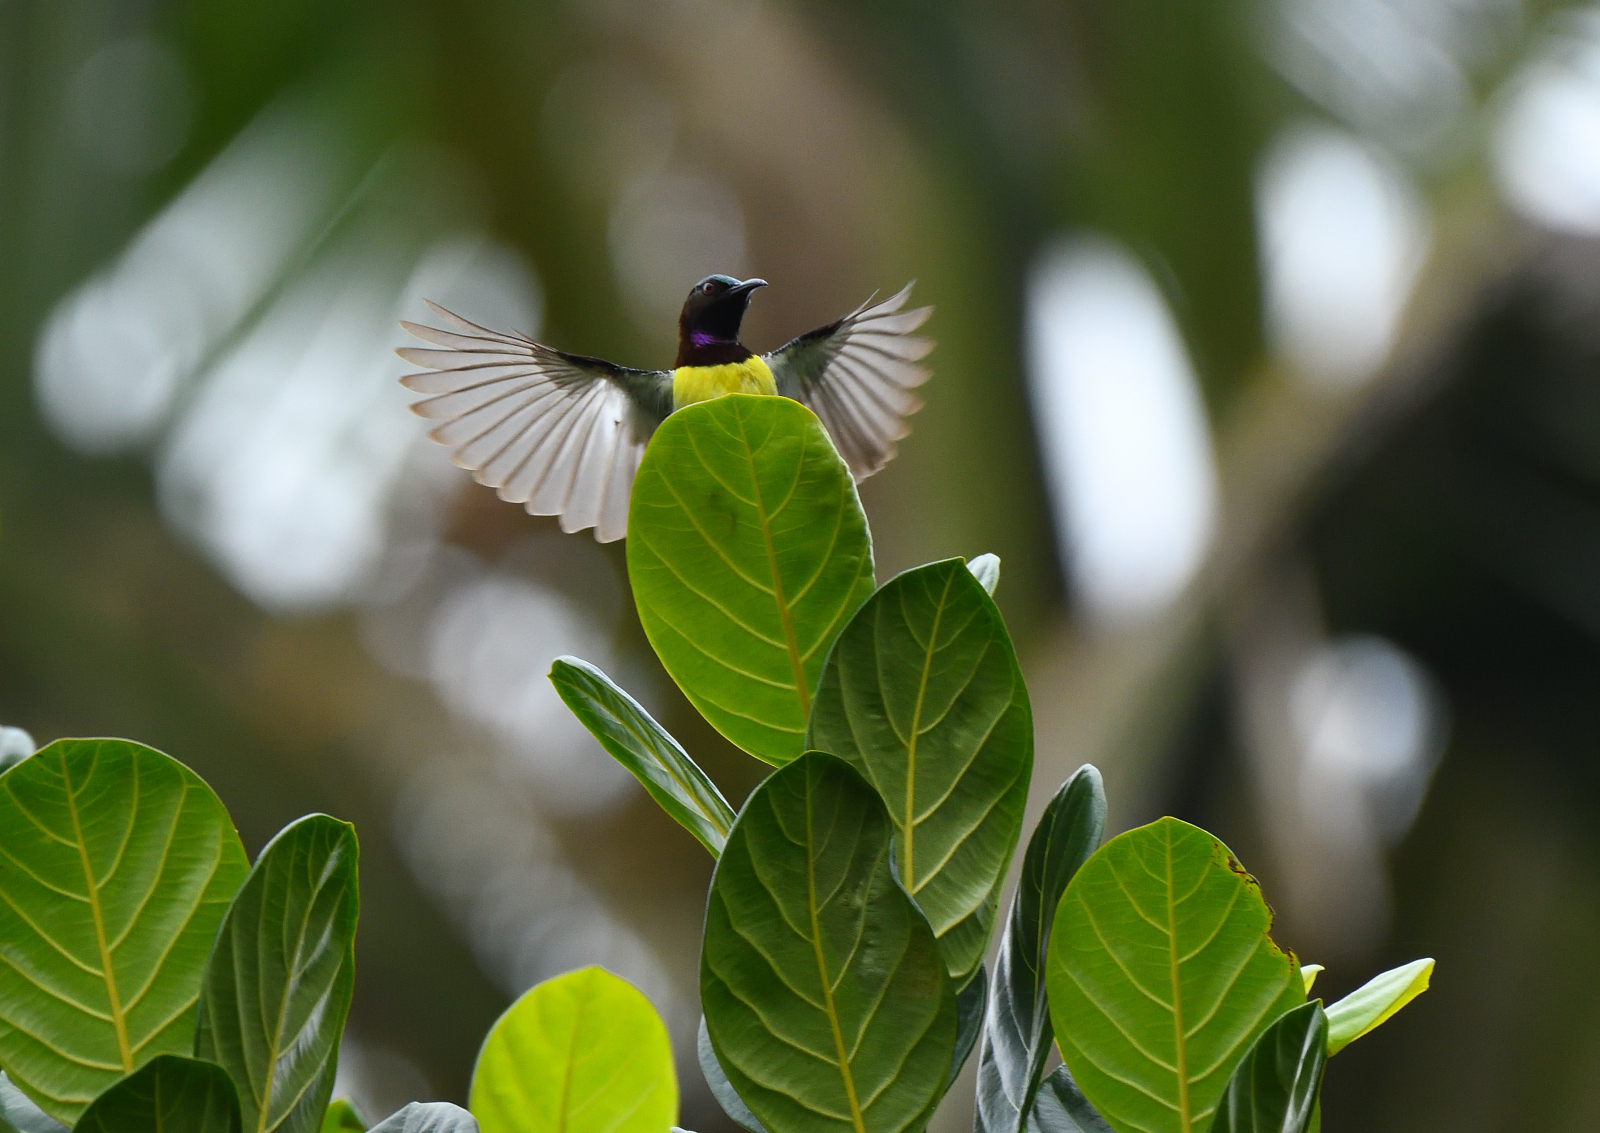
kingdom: Animalia
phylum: Chordata
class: Aves
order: Passeriformes
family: Nectariniidae
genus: Leptocoma
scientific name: Leptocoma zeylonica
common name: Purple-rumped sunbird
